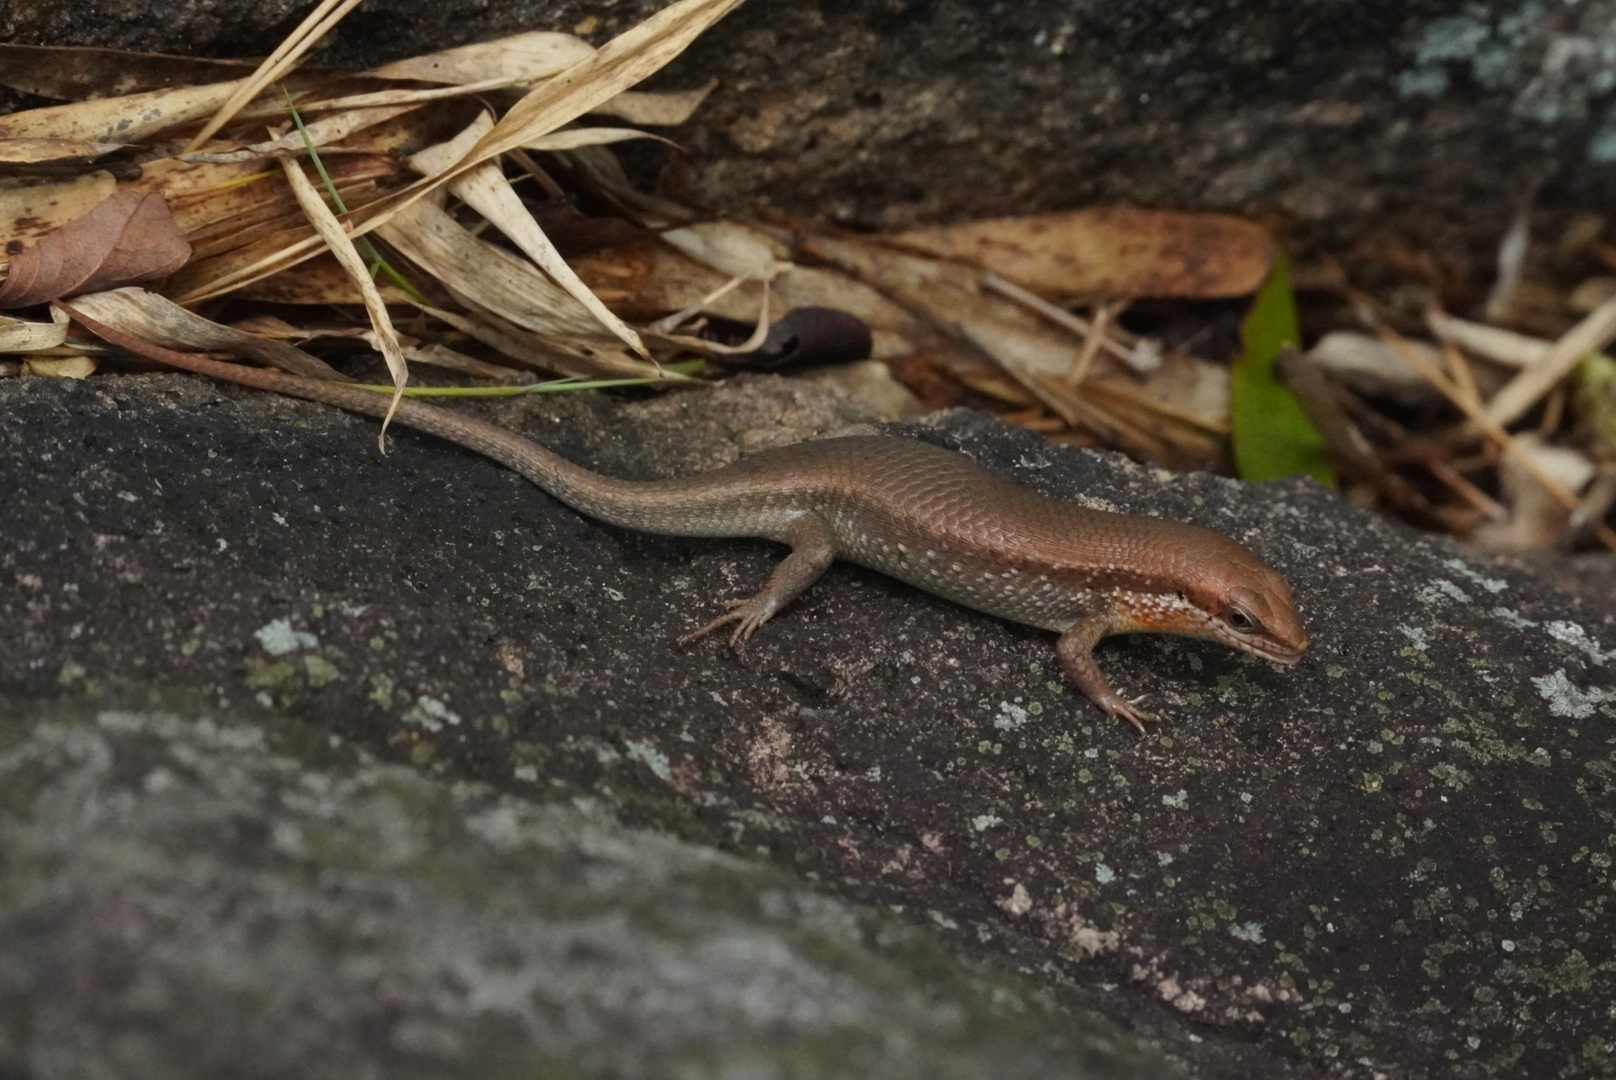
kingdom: Animalia
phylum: Chordata
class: Squamata
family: Scincidae
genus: Eutropis
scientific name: Eutropis macularia
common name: Bronze mabuya
